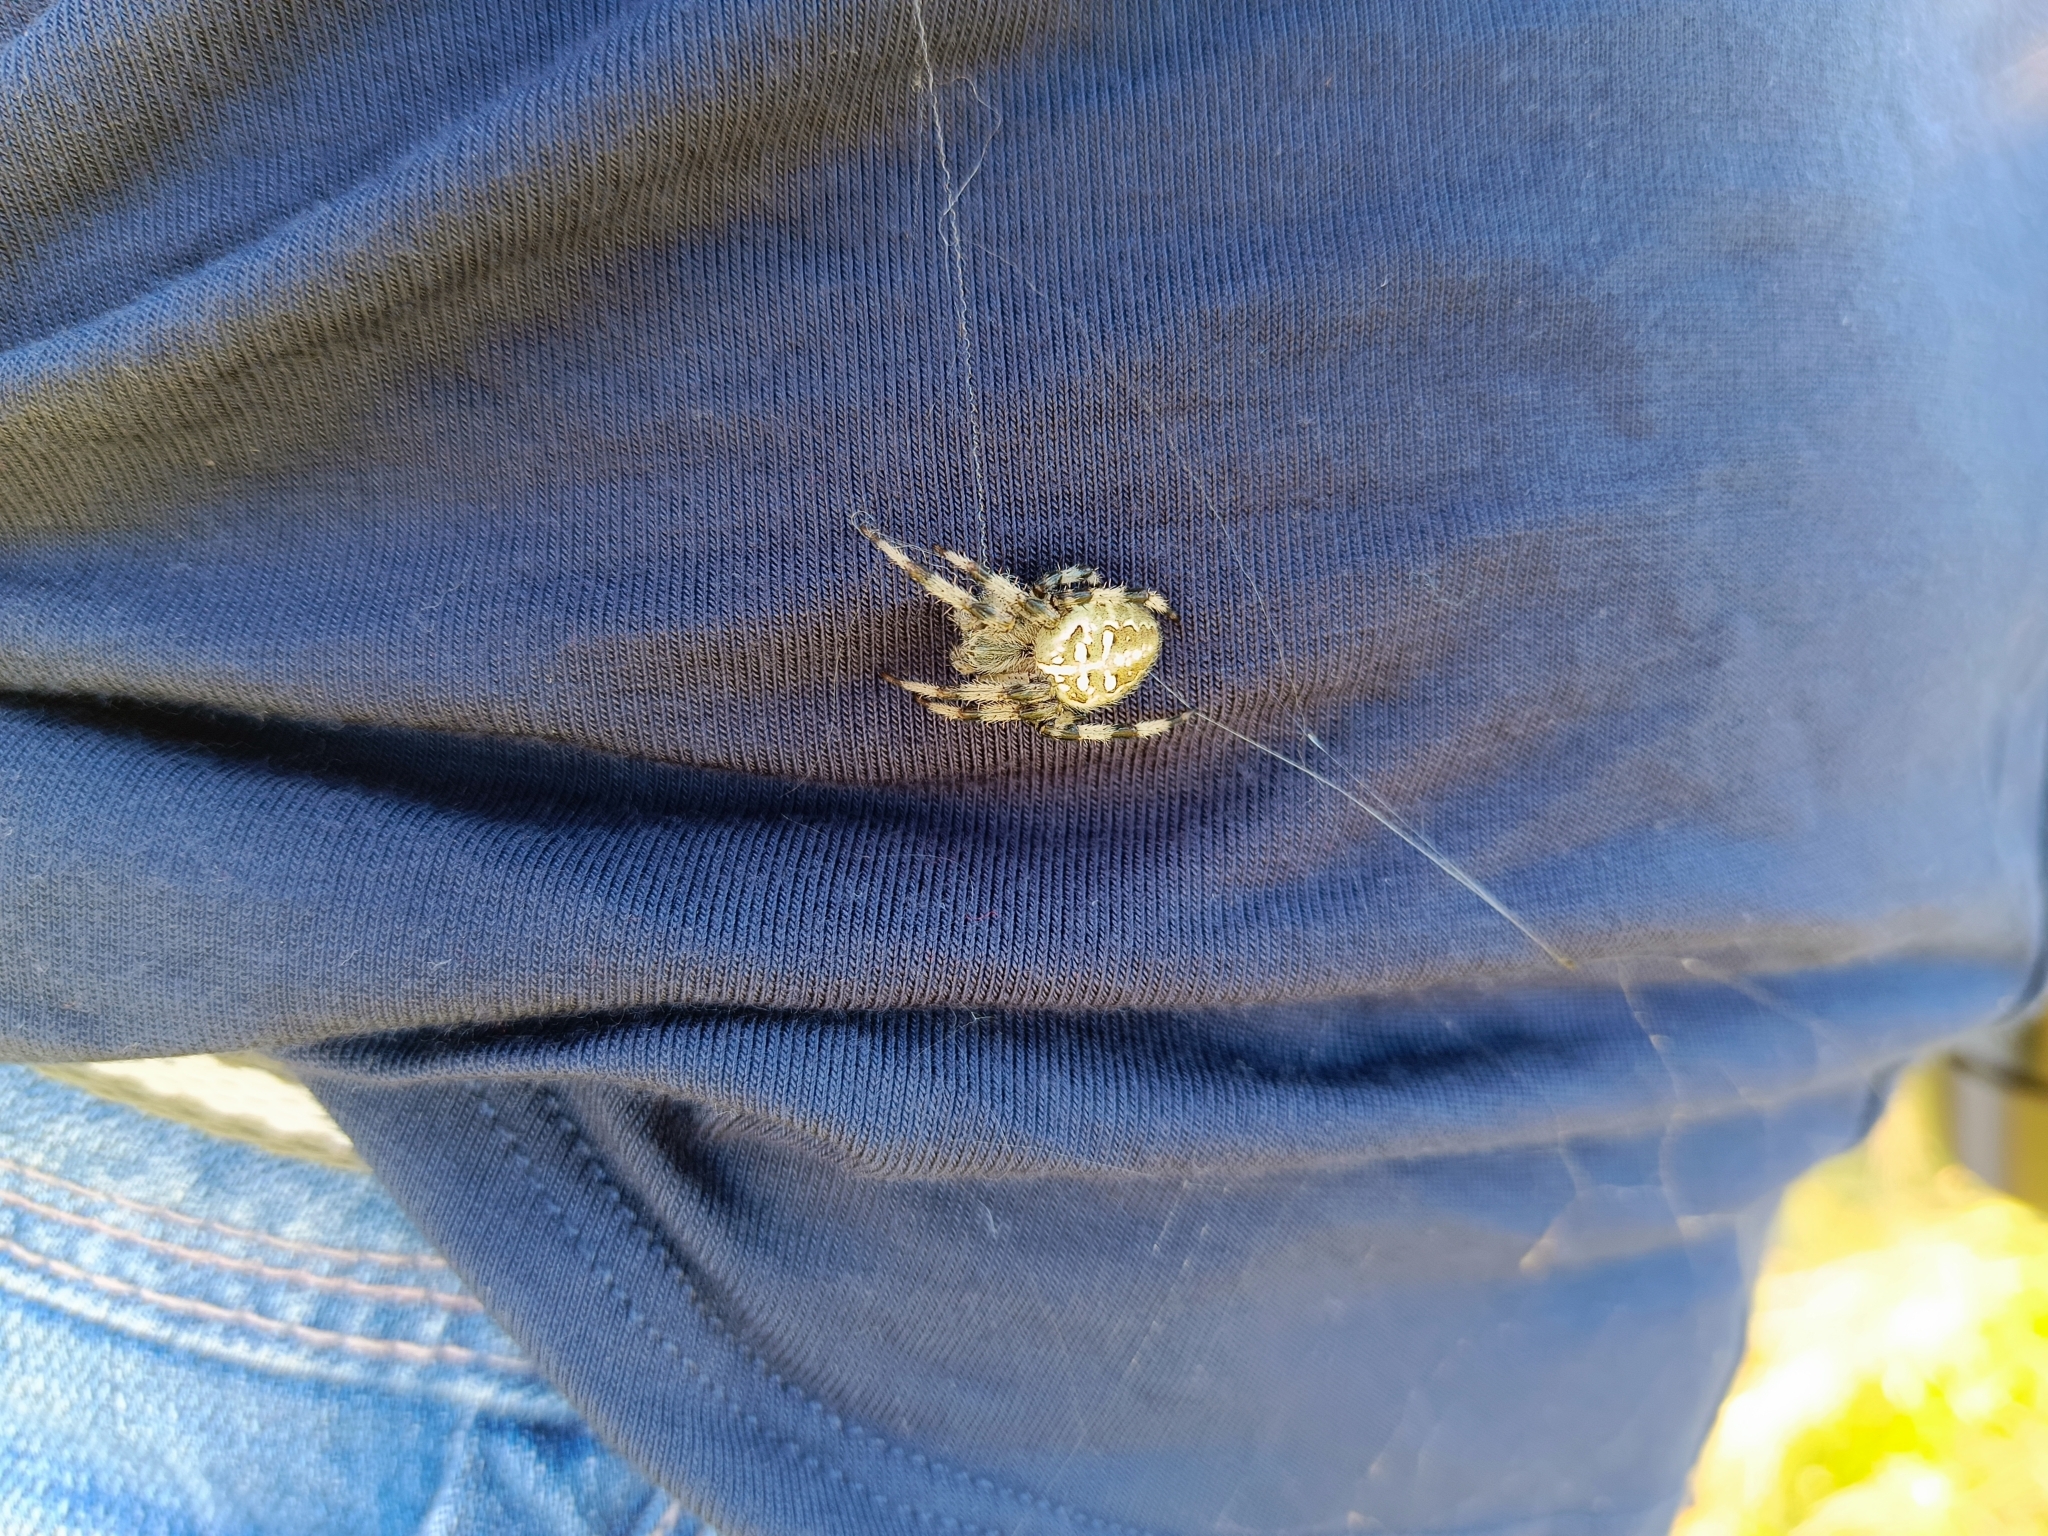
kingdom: Animalia
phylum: Arthropoda
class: Arachnida
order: Araneae
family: Araneidae
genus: Araneus
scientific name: Araneus quadratus
